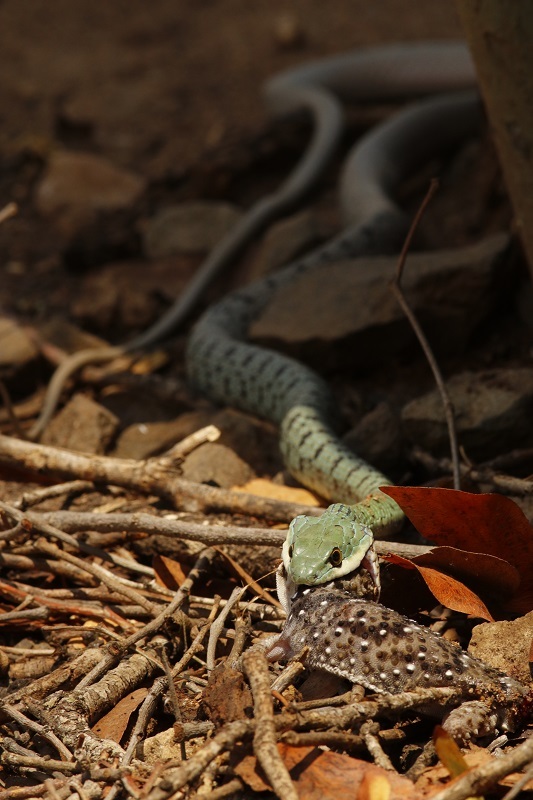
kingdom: Animalia
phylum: Chordata
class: Squamata
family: Colubridae
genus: Philothamnus
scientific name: Philothamnus semivariegatus
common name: Spotted bush snake
